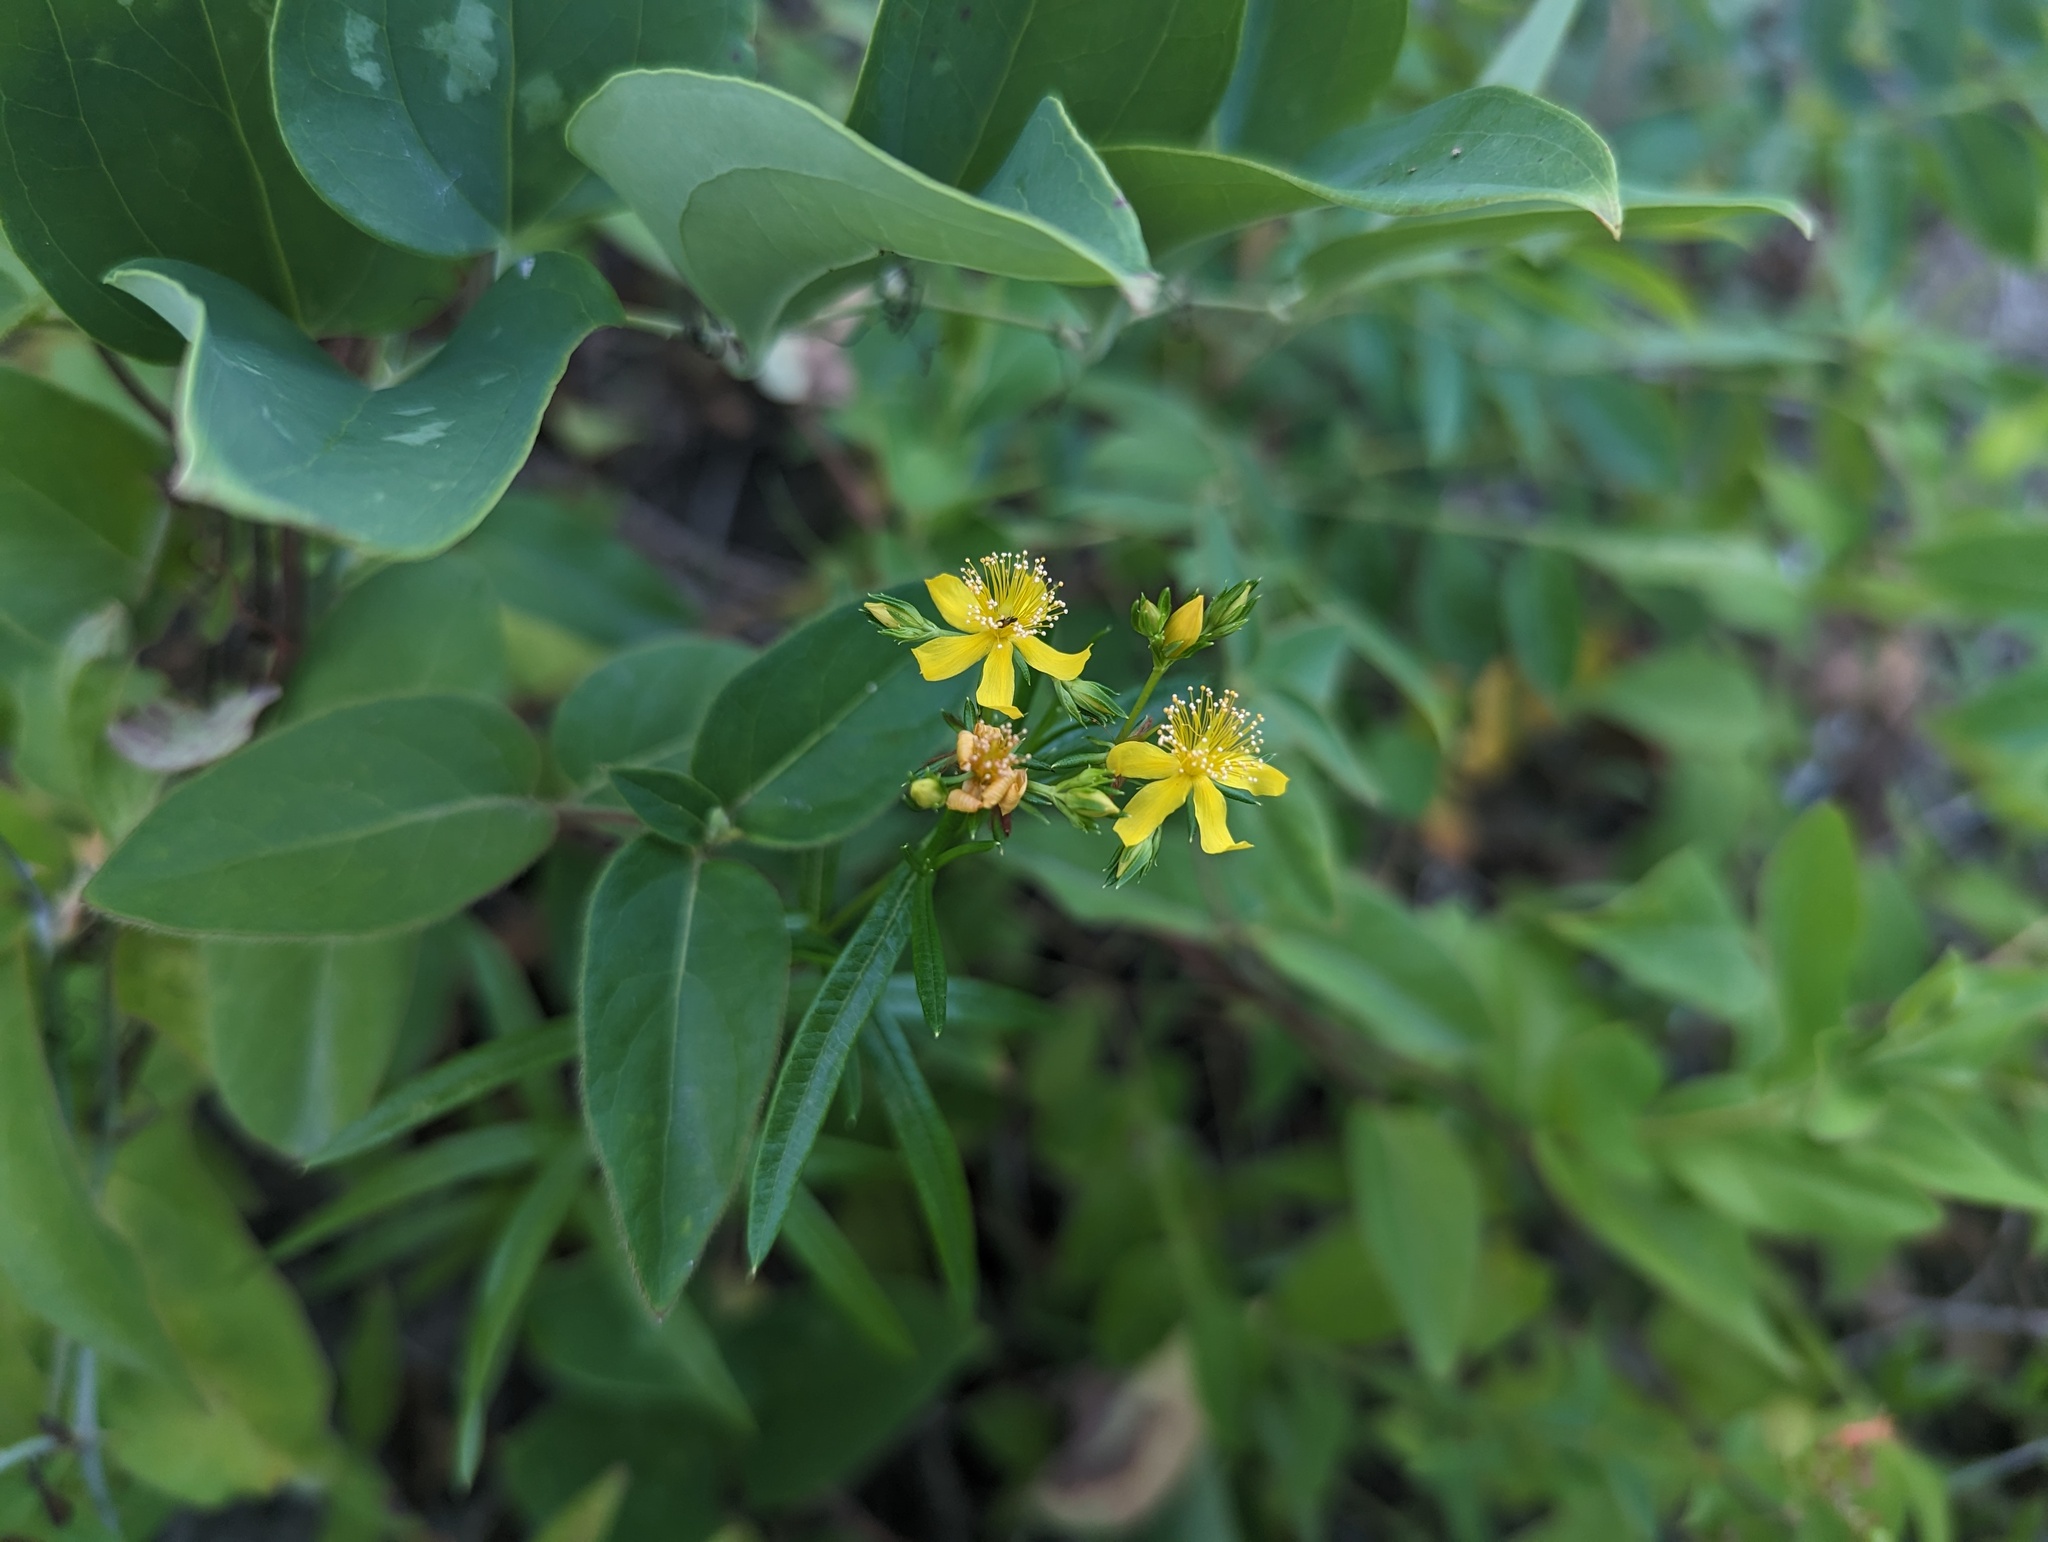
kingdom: Plantae
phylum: Tracheophyta
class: Magnoliopsida
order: Malpighiales
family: Hypericaceae
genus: Hypericum
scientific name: Hypericum adpressum
